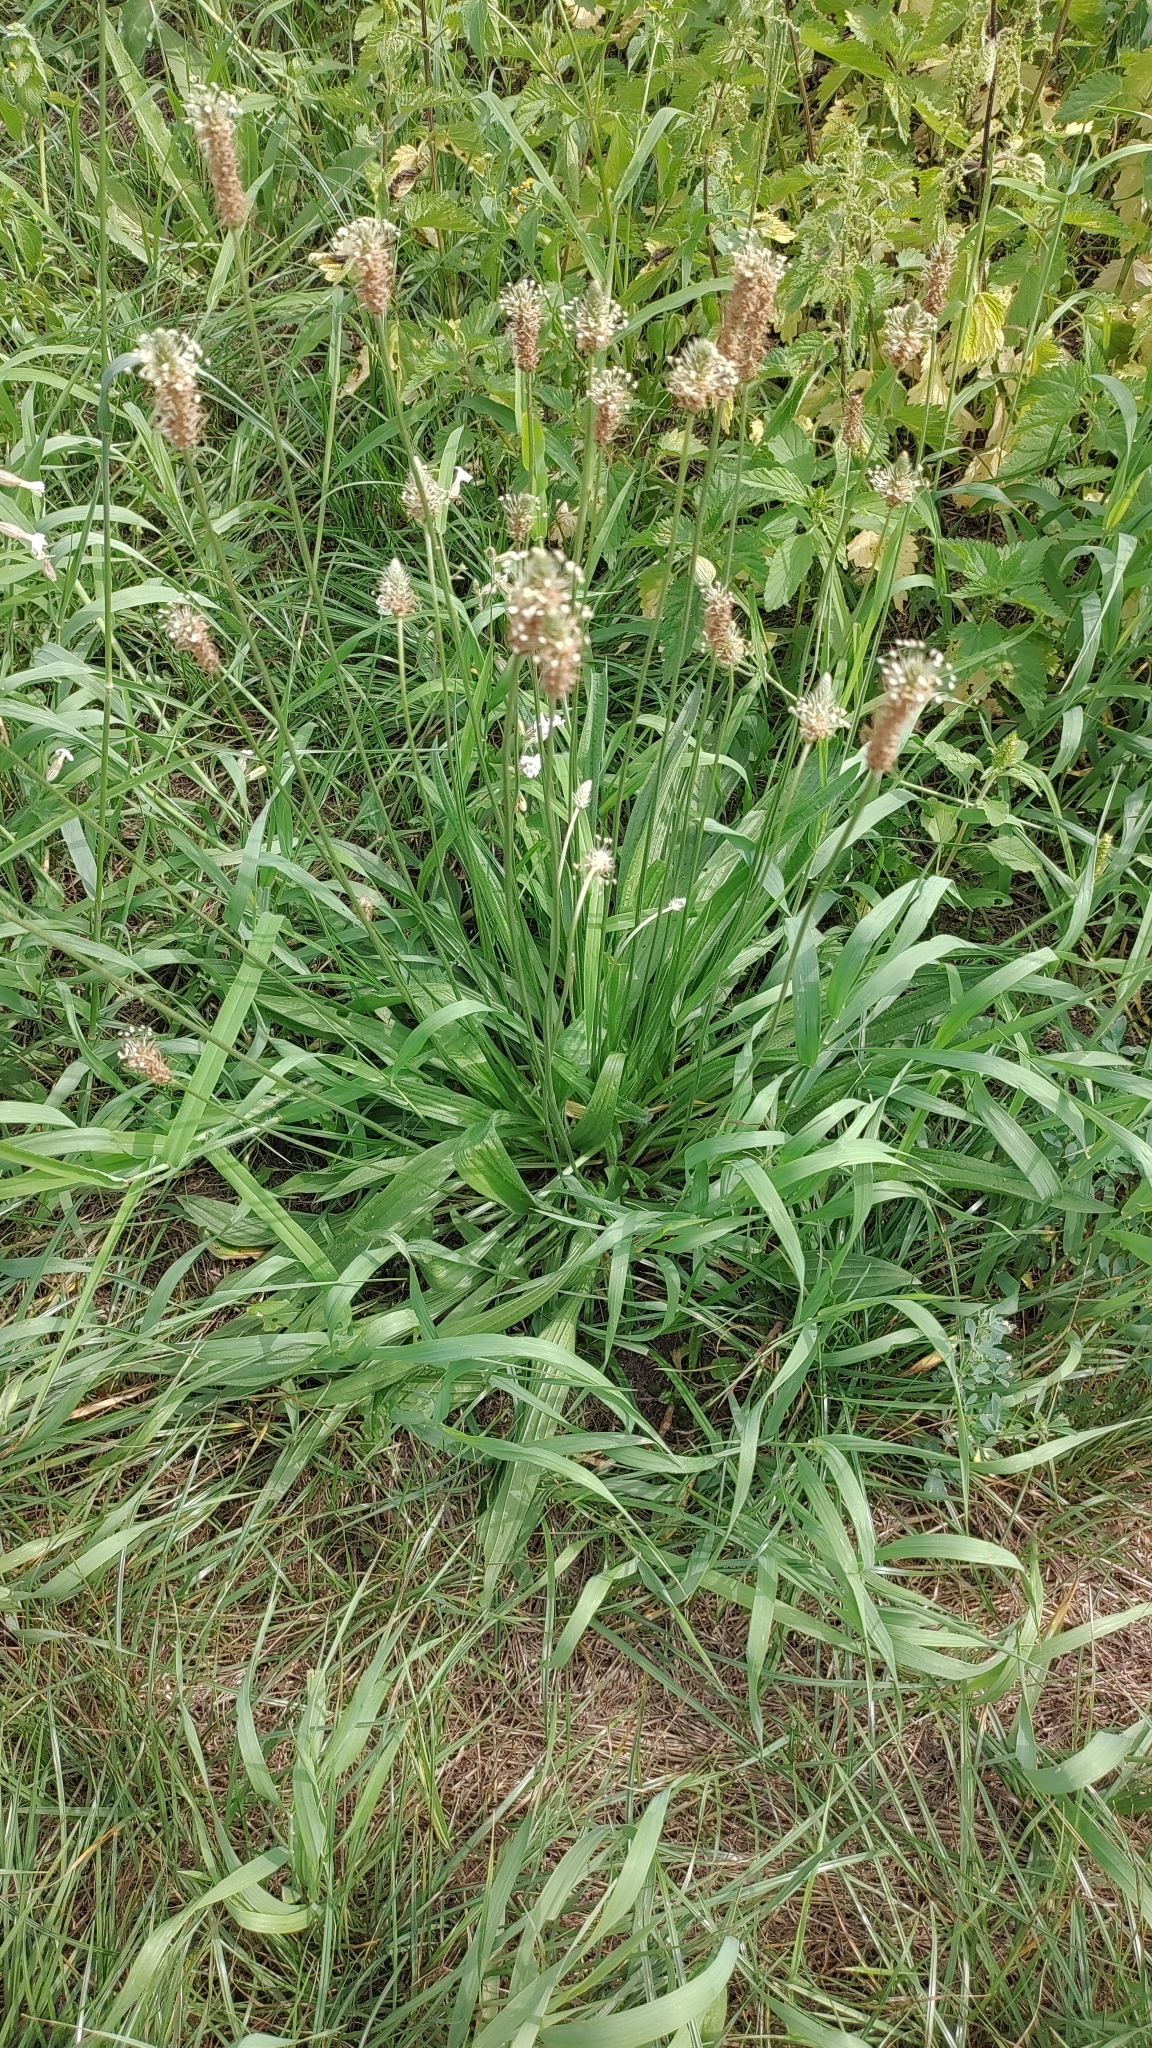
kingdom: Plantae
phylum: Tracheophyta
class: Magnoliopsida
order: Lamiales
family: Plantaginaceae
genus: Plantago
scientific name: Plantago lanceolata
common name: Ribwort plantain
